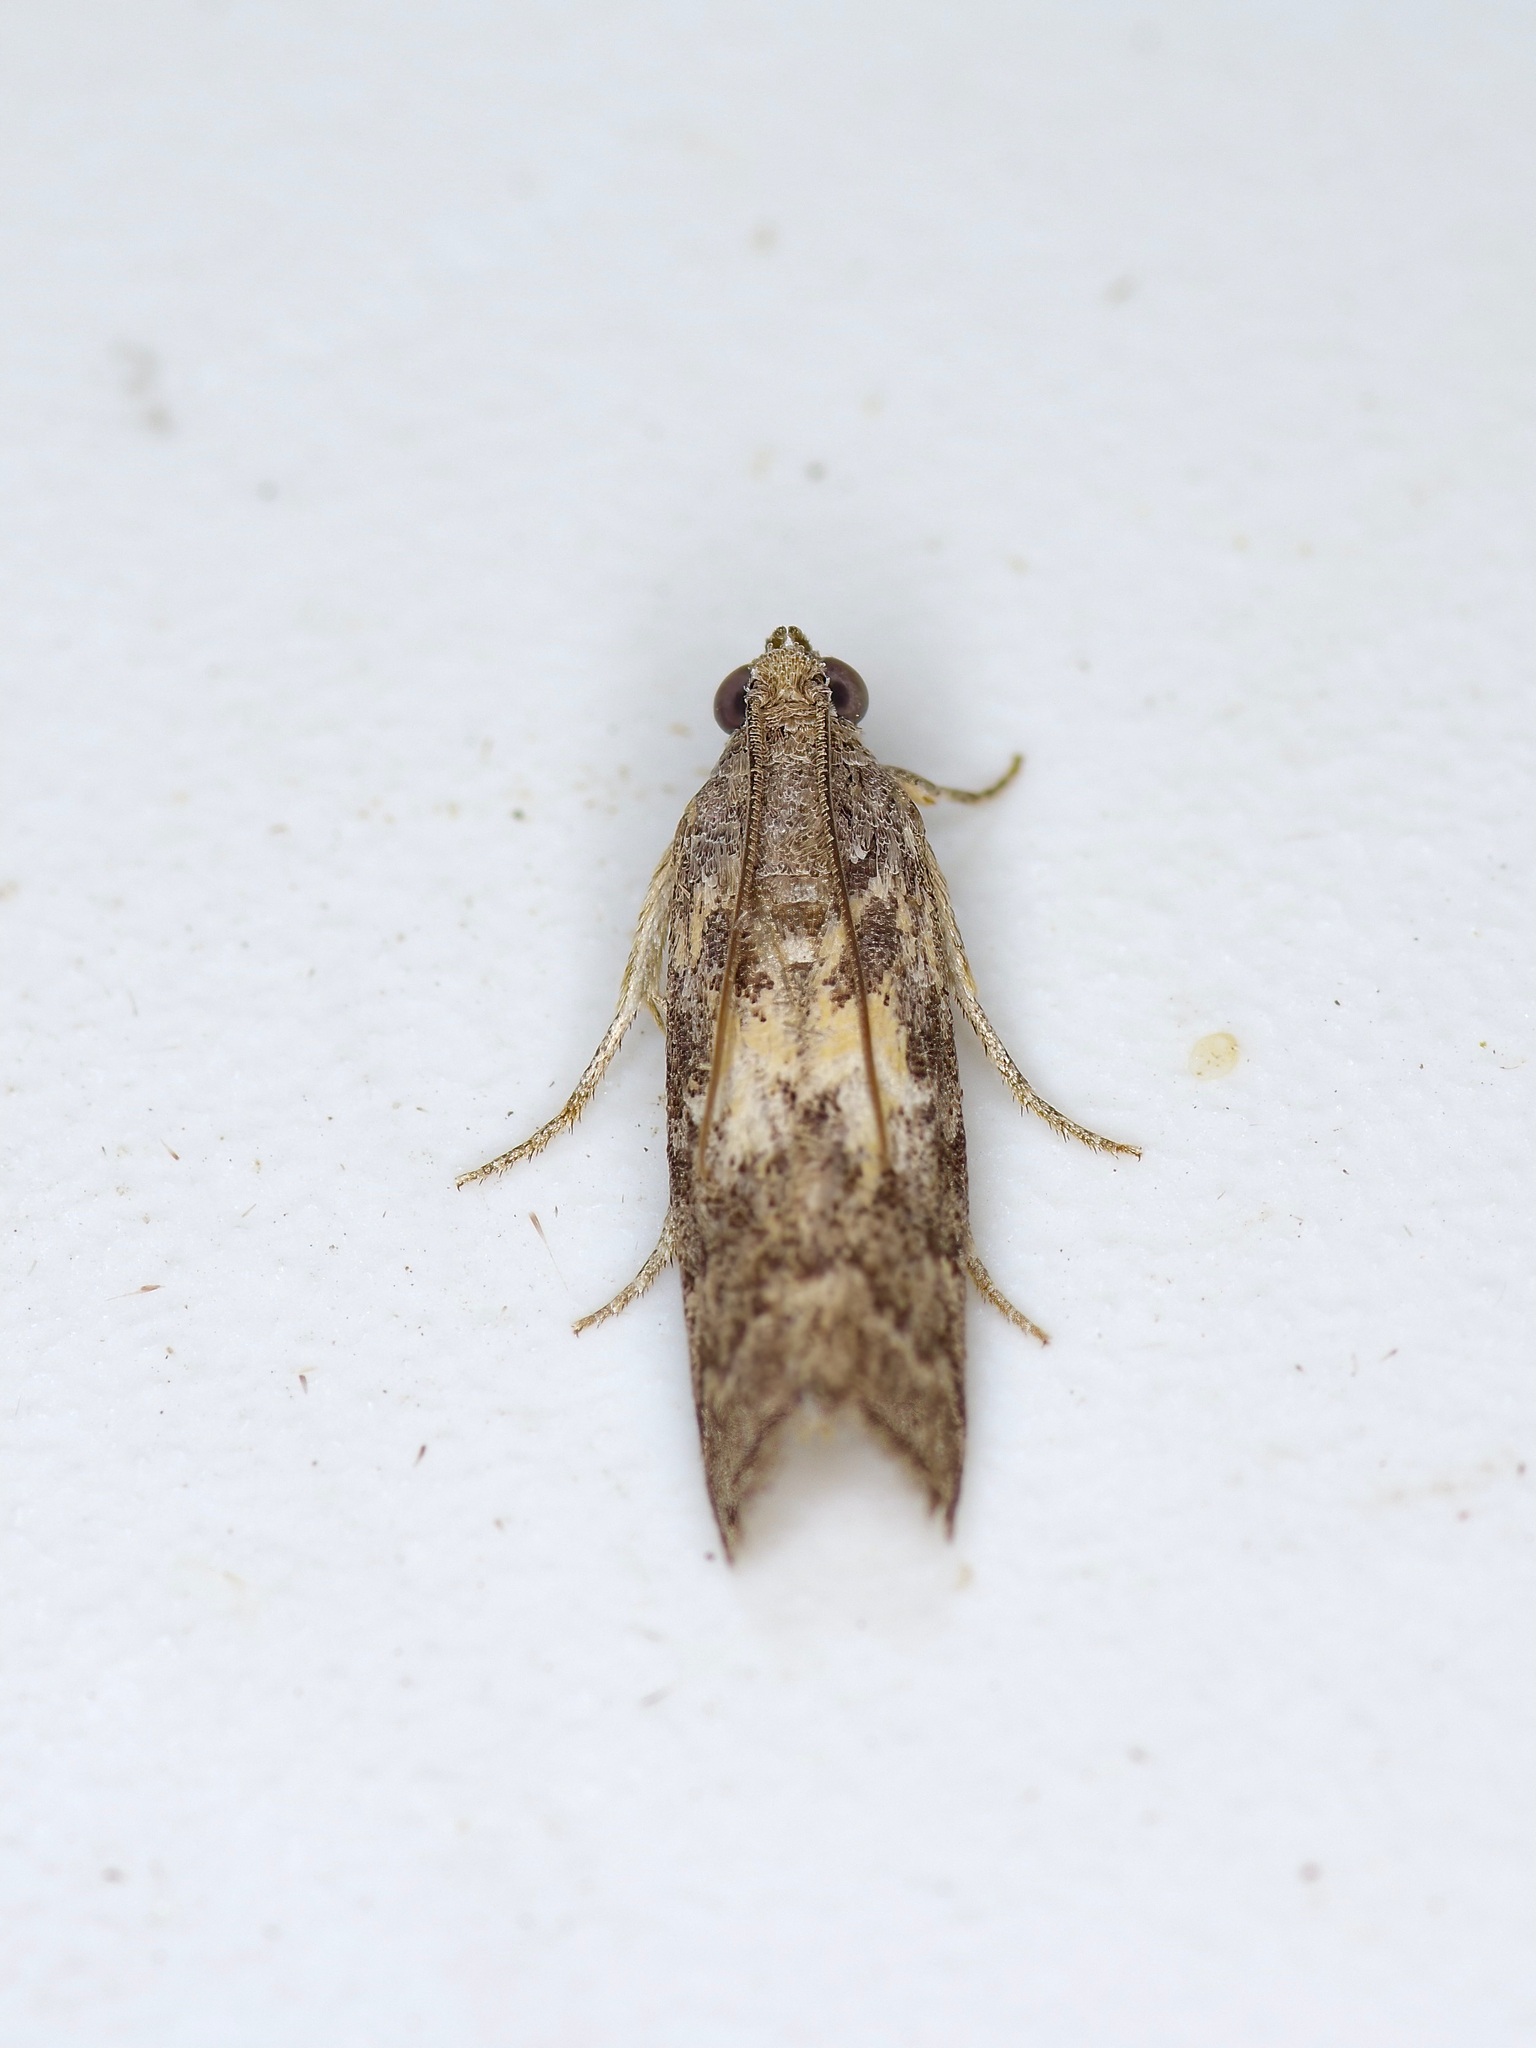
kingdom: Animalia
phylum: Arthropoda
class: Insecta
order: Lepidoptera
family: Pyralidae
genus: Tacoma
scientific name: Tacoma feriella
